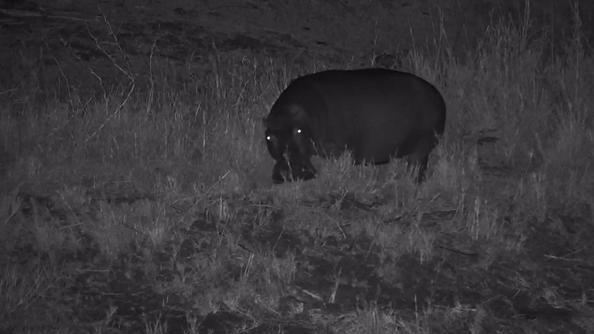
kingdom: Animalia
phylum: Chordata
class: Mammalia
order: Artiodactyla
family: Hippopotamidae
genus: Hippopotamus
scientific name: Hippopotamus amphibius
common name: Common hippopotamus
